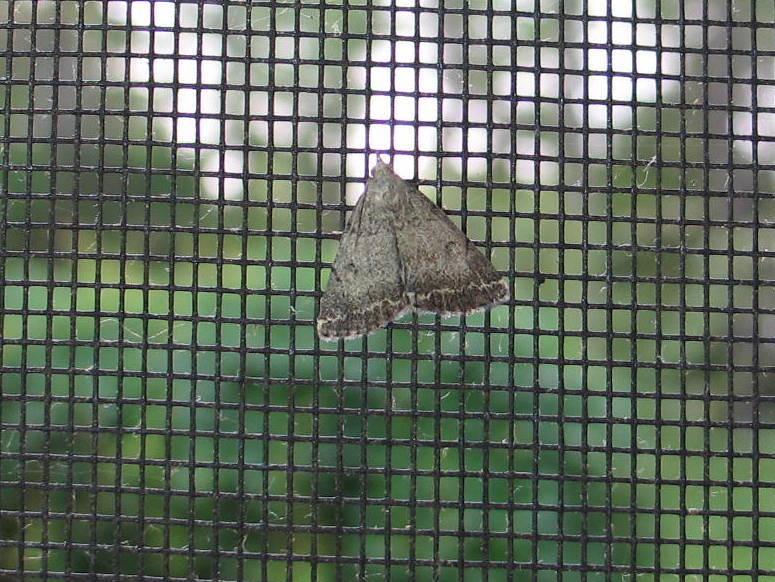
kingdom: Animalia
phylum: Arthropoda
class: Insecta
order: Lepidoptera
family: Erebidae
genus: Zanclognatha
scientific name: Zanclognatha theralis
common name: Flagged fan-foot
